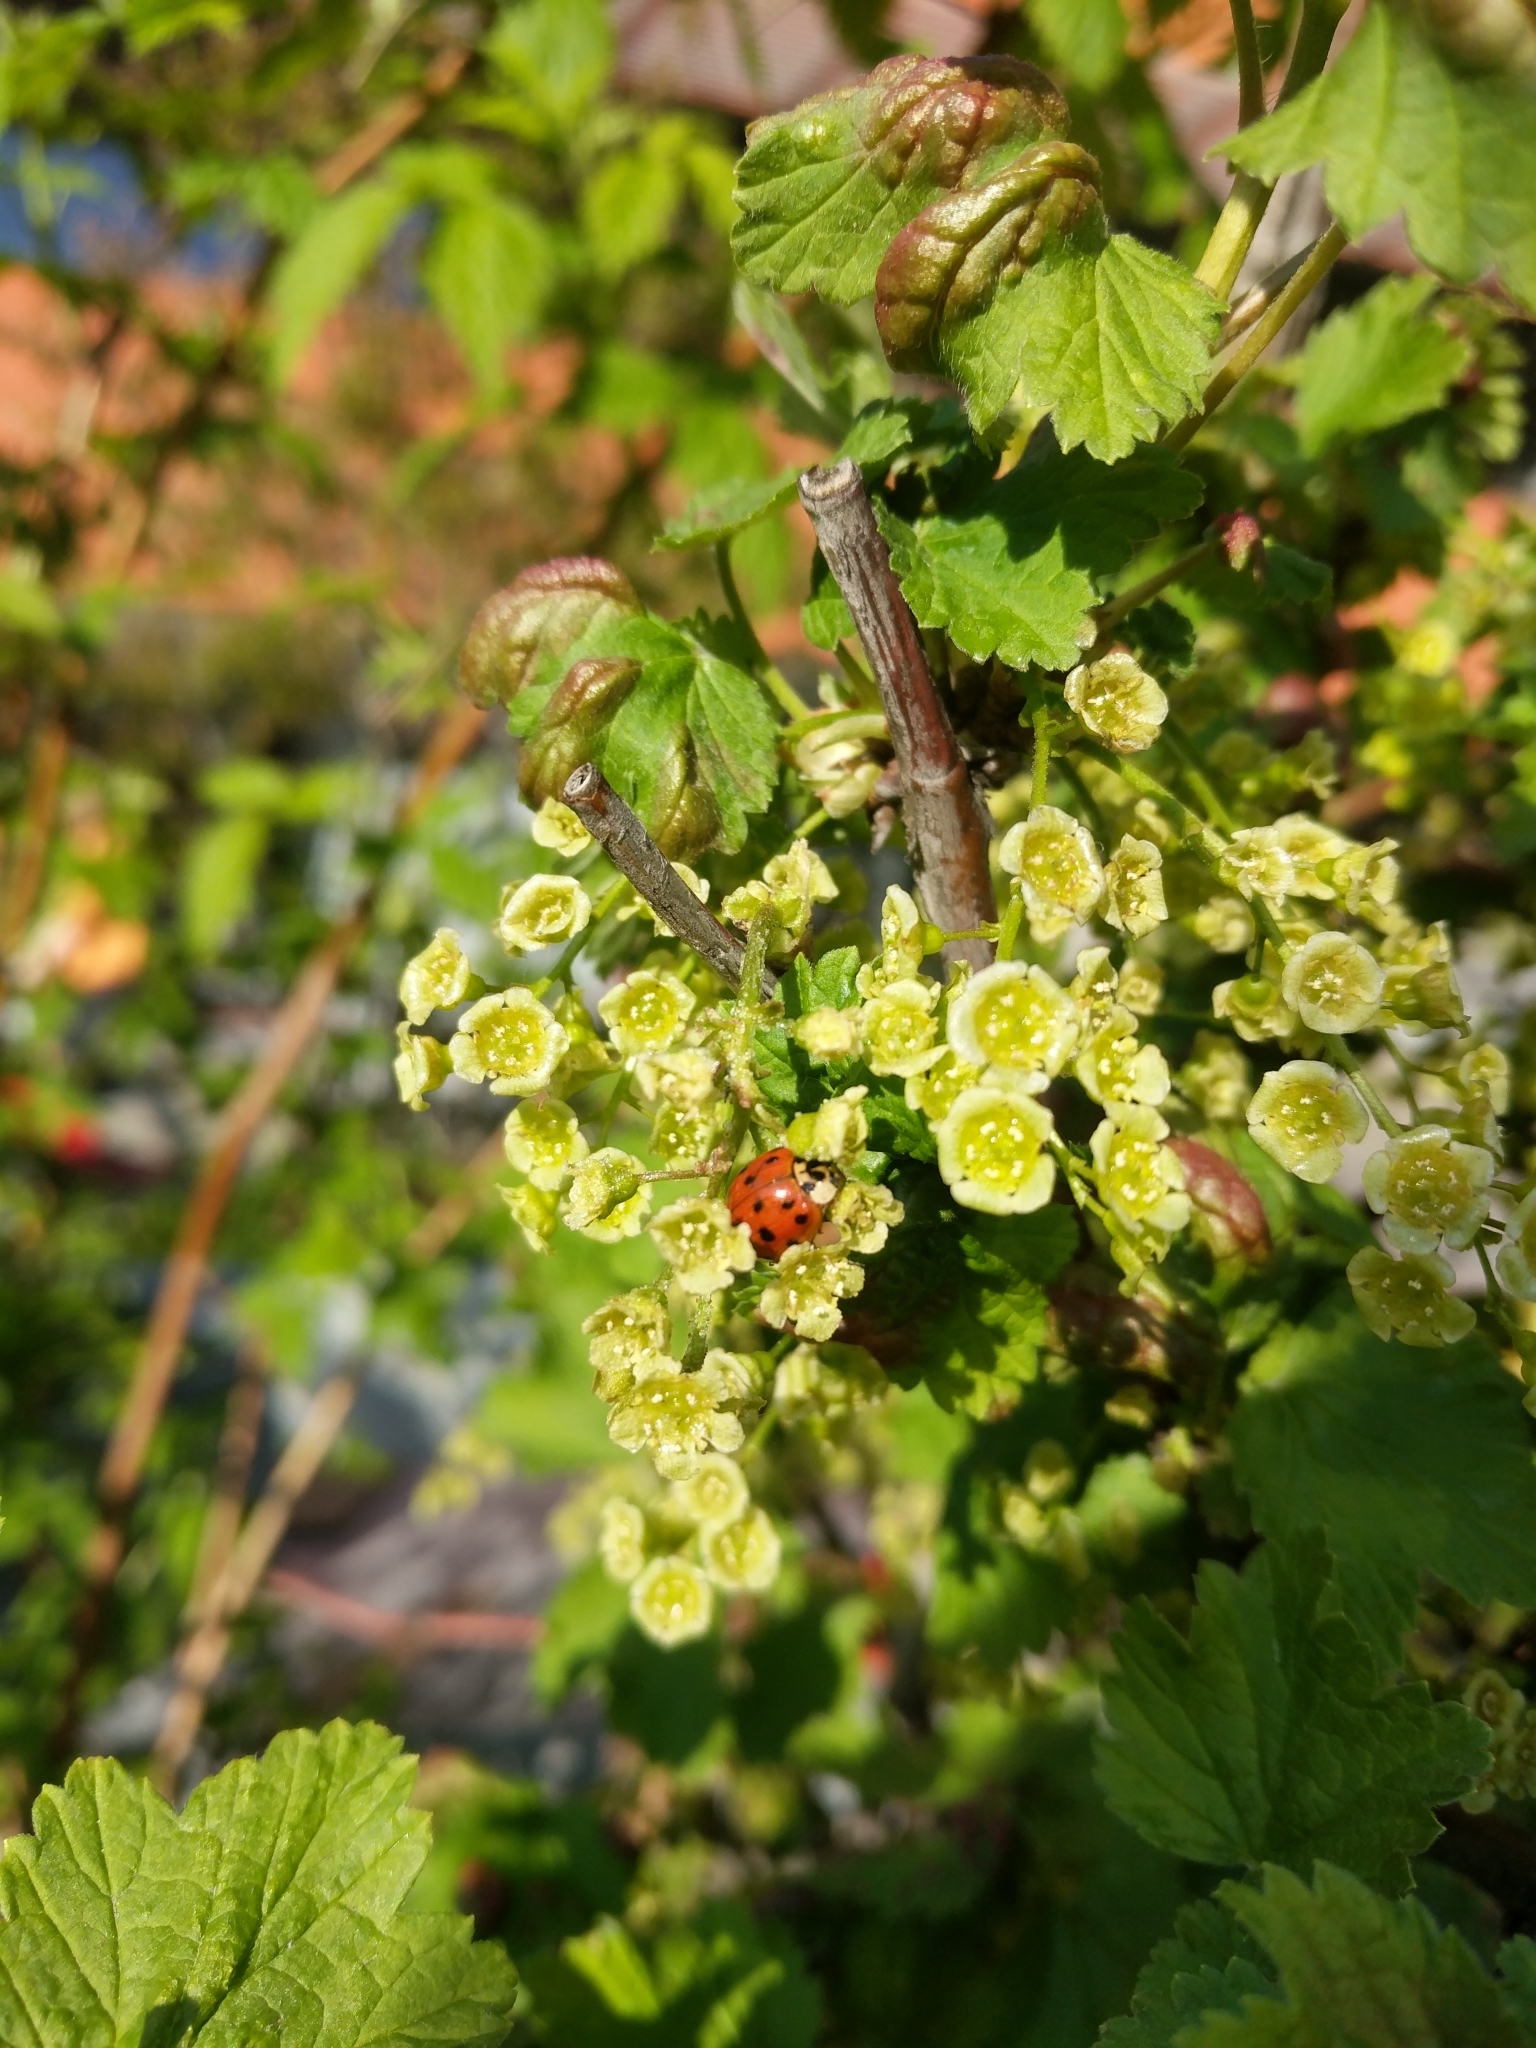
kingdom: Animalia
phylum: Arthropoda
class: Insecta
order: Coleoptera
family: Coccinellidae
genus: Harmonia
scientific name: Harmonia axyridis
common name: Harlequin ladybird
